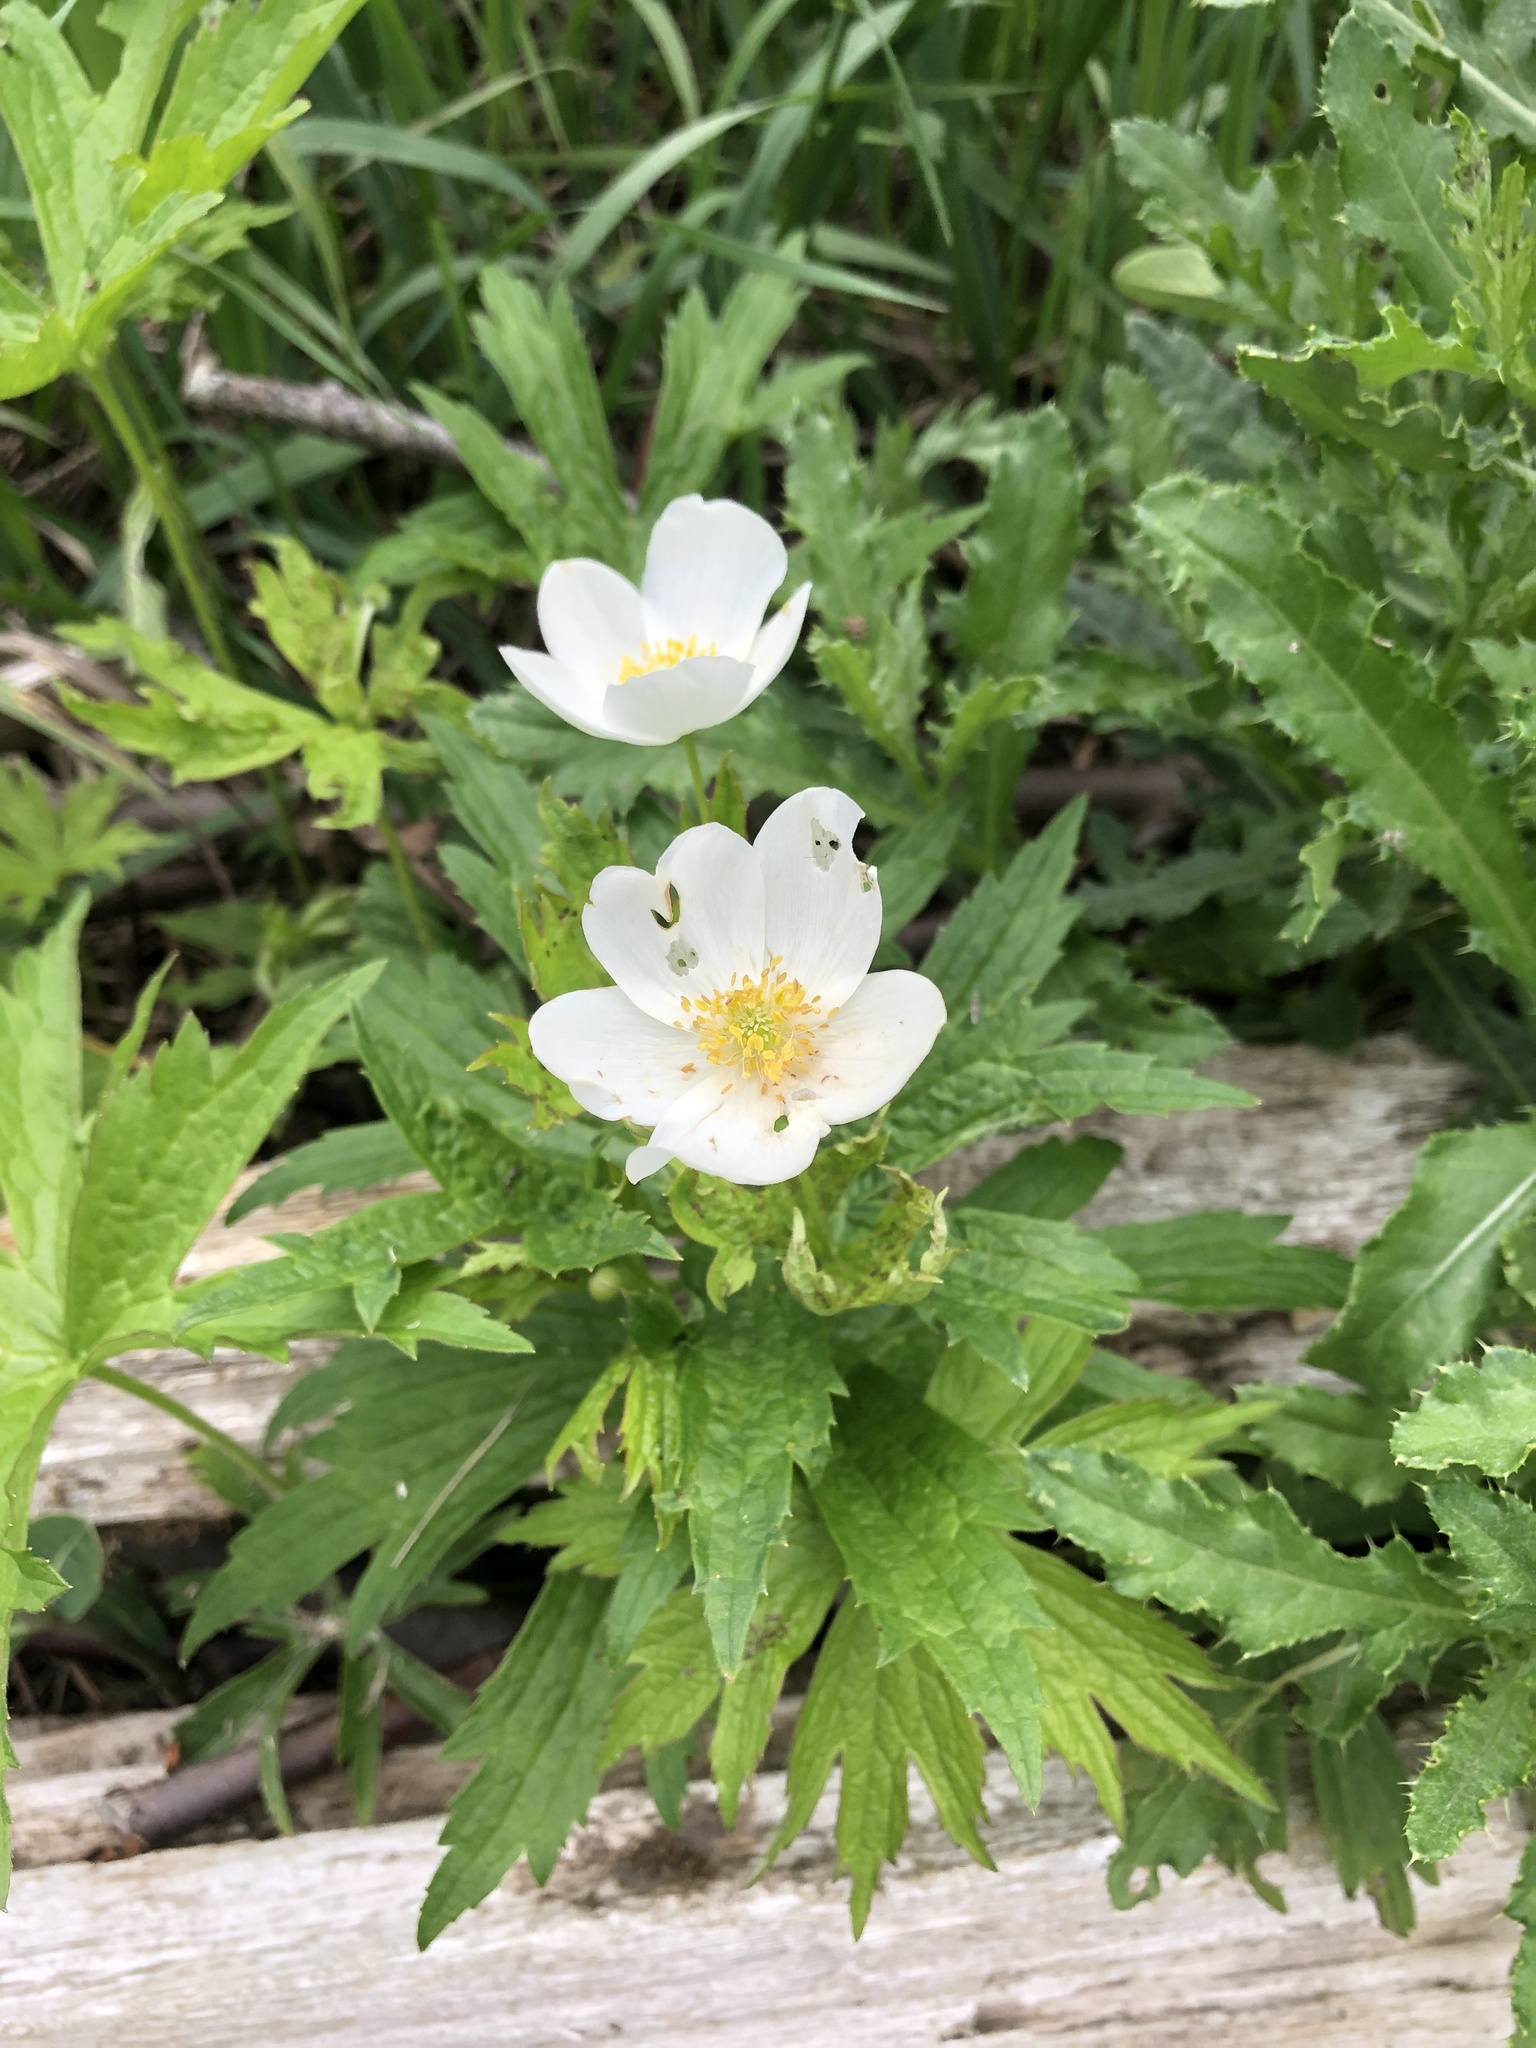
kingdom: Plantae
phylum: Tracheophyta
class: Magnoliopsida
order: Ranunculales
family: Ranunculaceae
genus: Anemonastrum
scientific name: Anemonastrum canadense
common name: Canada anemone
